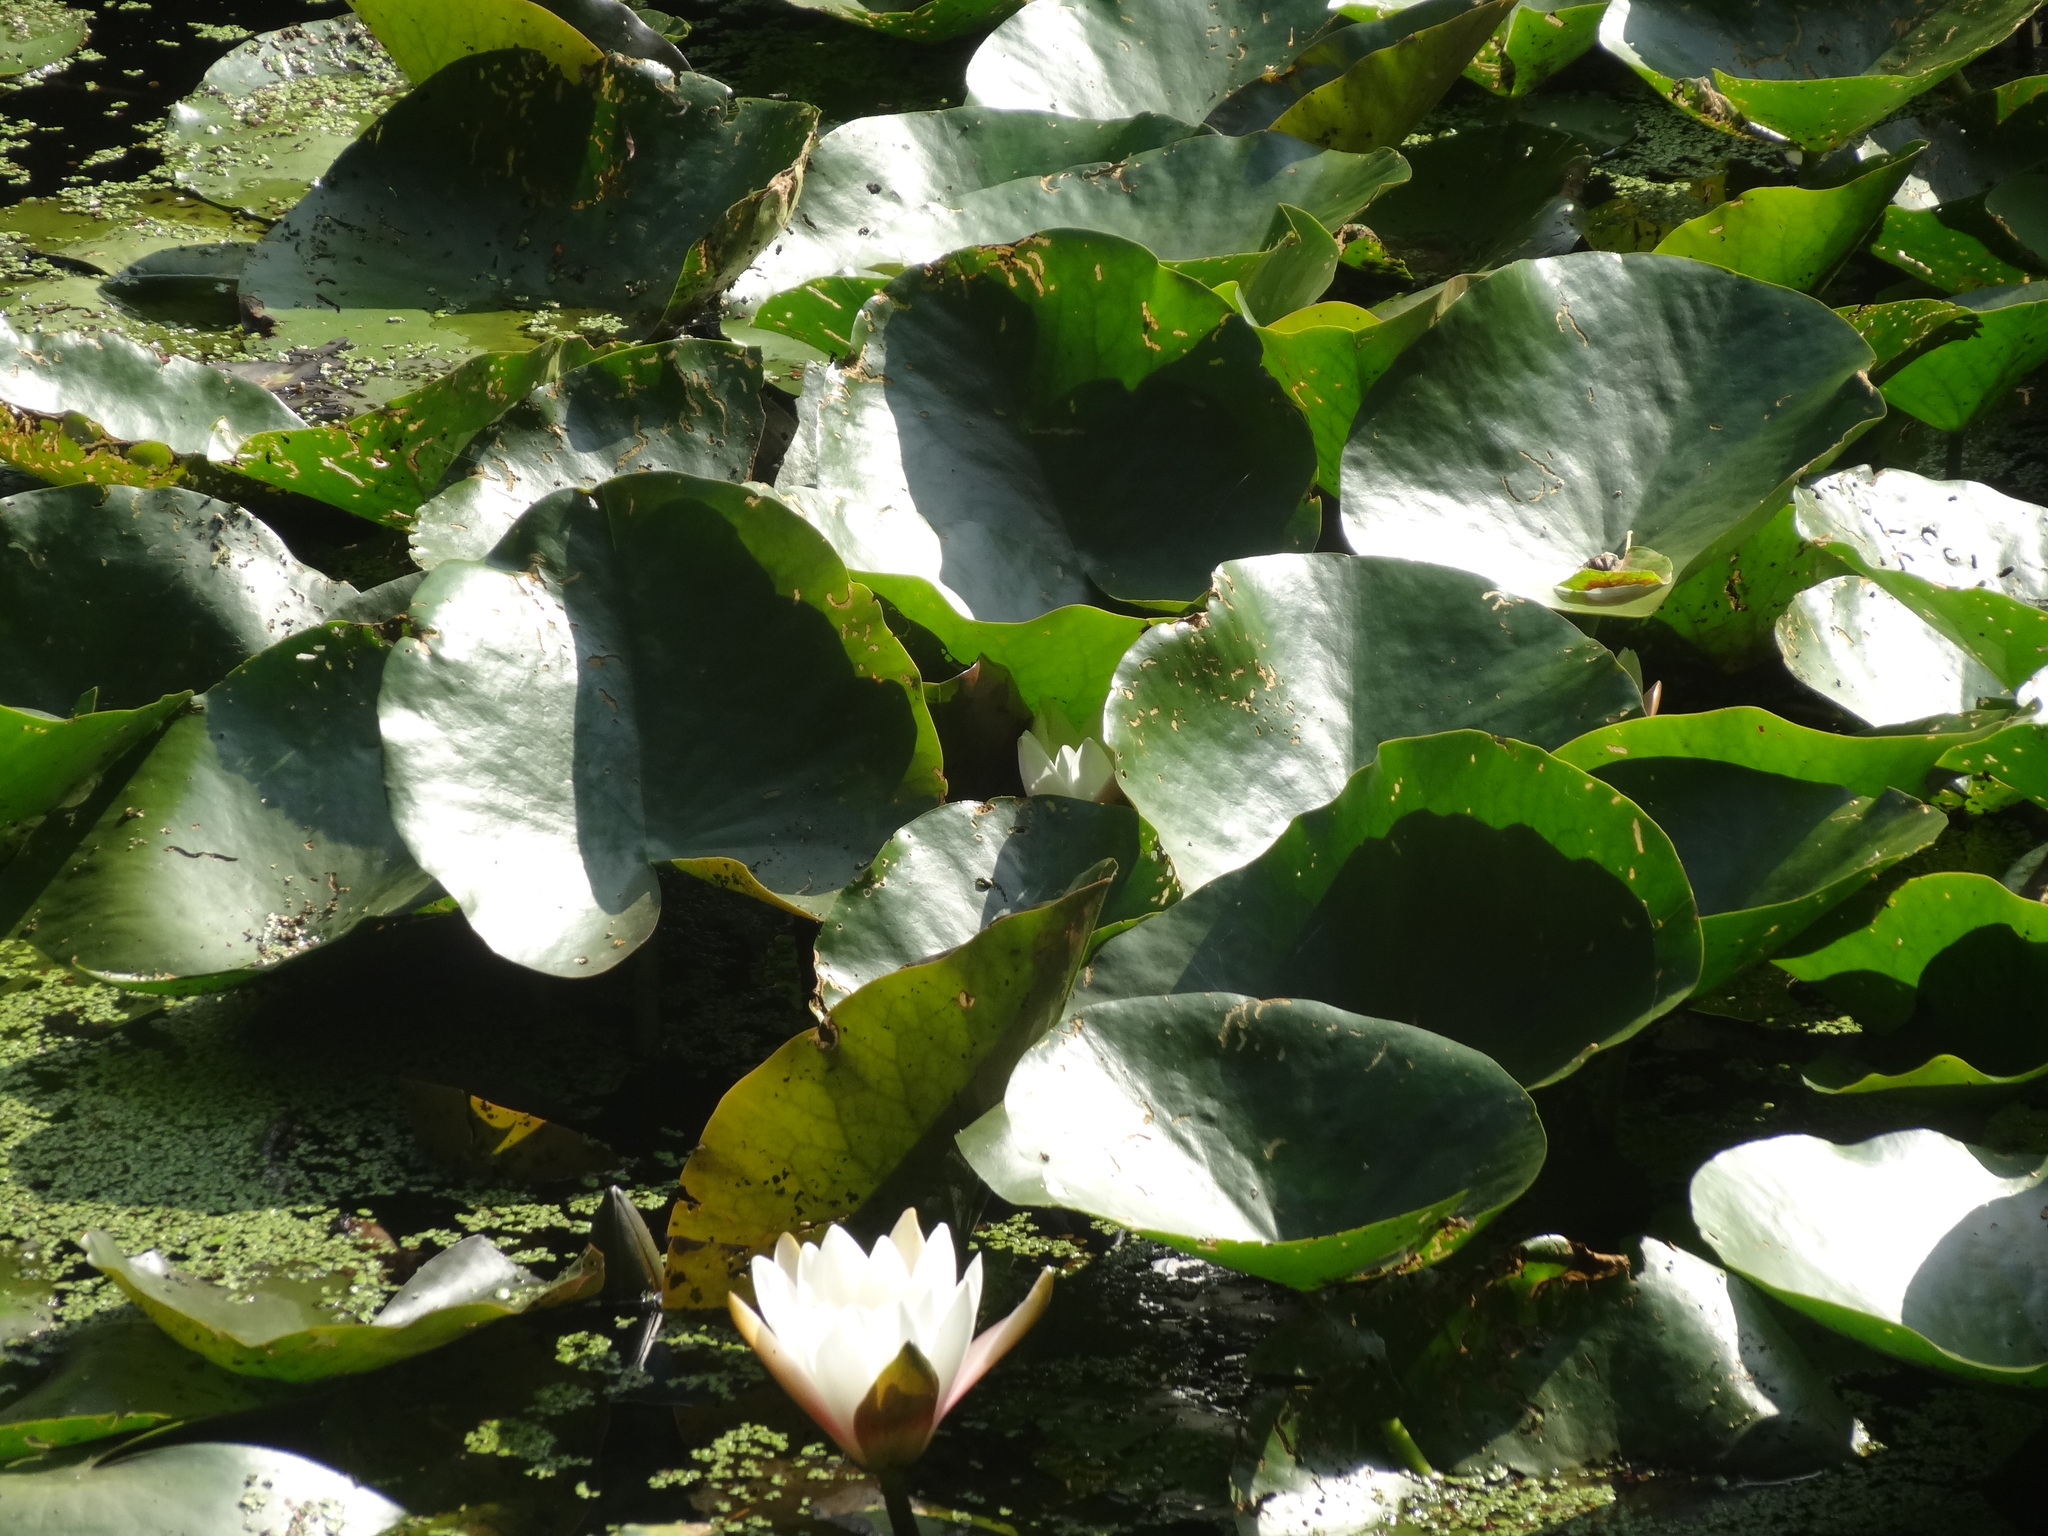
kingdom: Plantae
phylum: Tracheophyta
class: Magnoliopsida
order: Nymphaeales
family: Nymphaeaceae
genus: Nymphaea
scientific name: Nymphaea alba
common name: White water-lily
